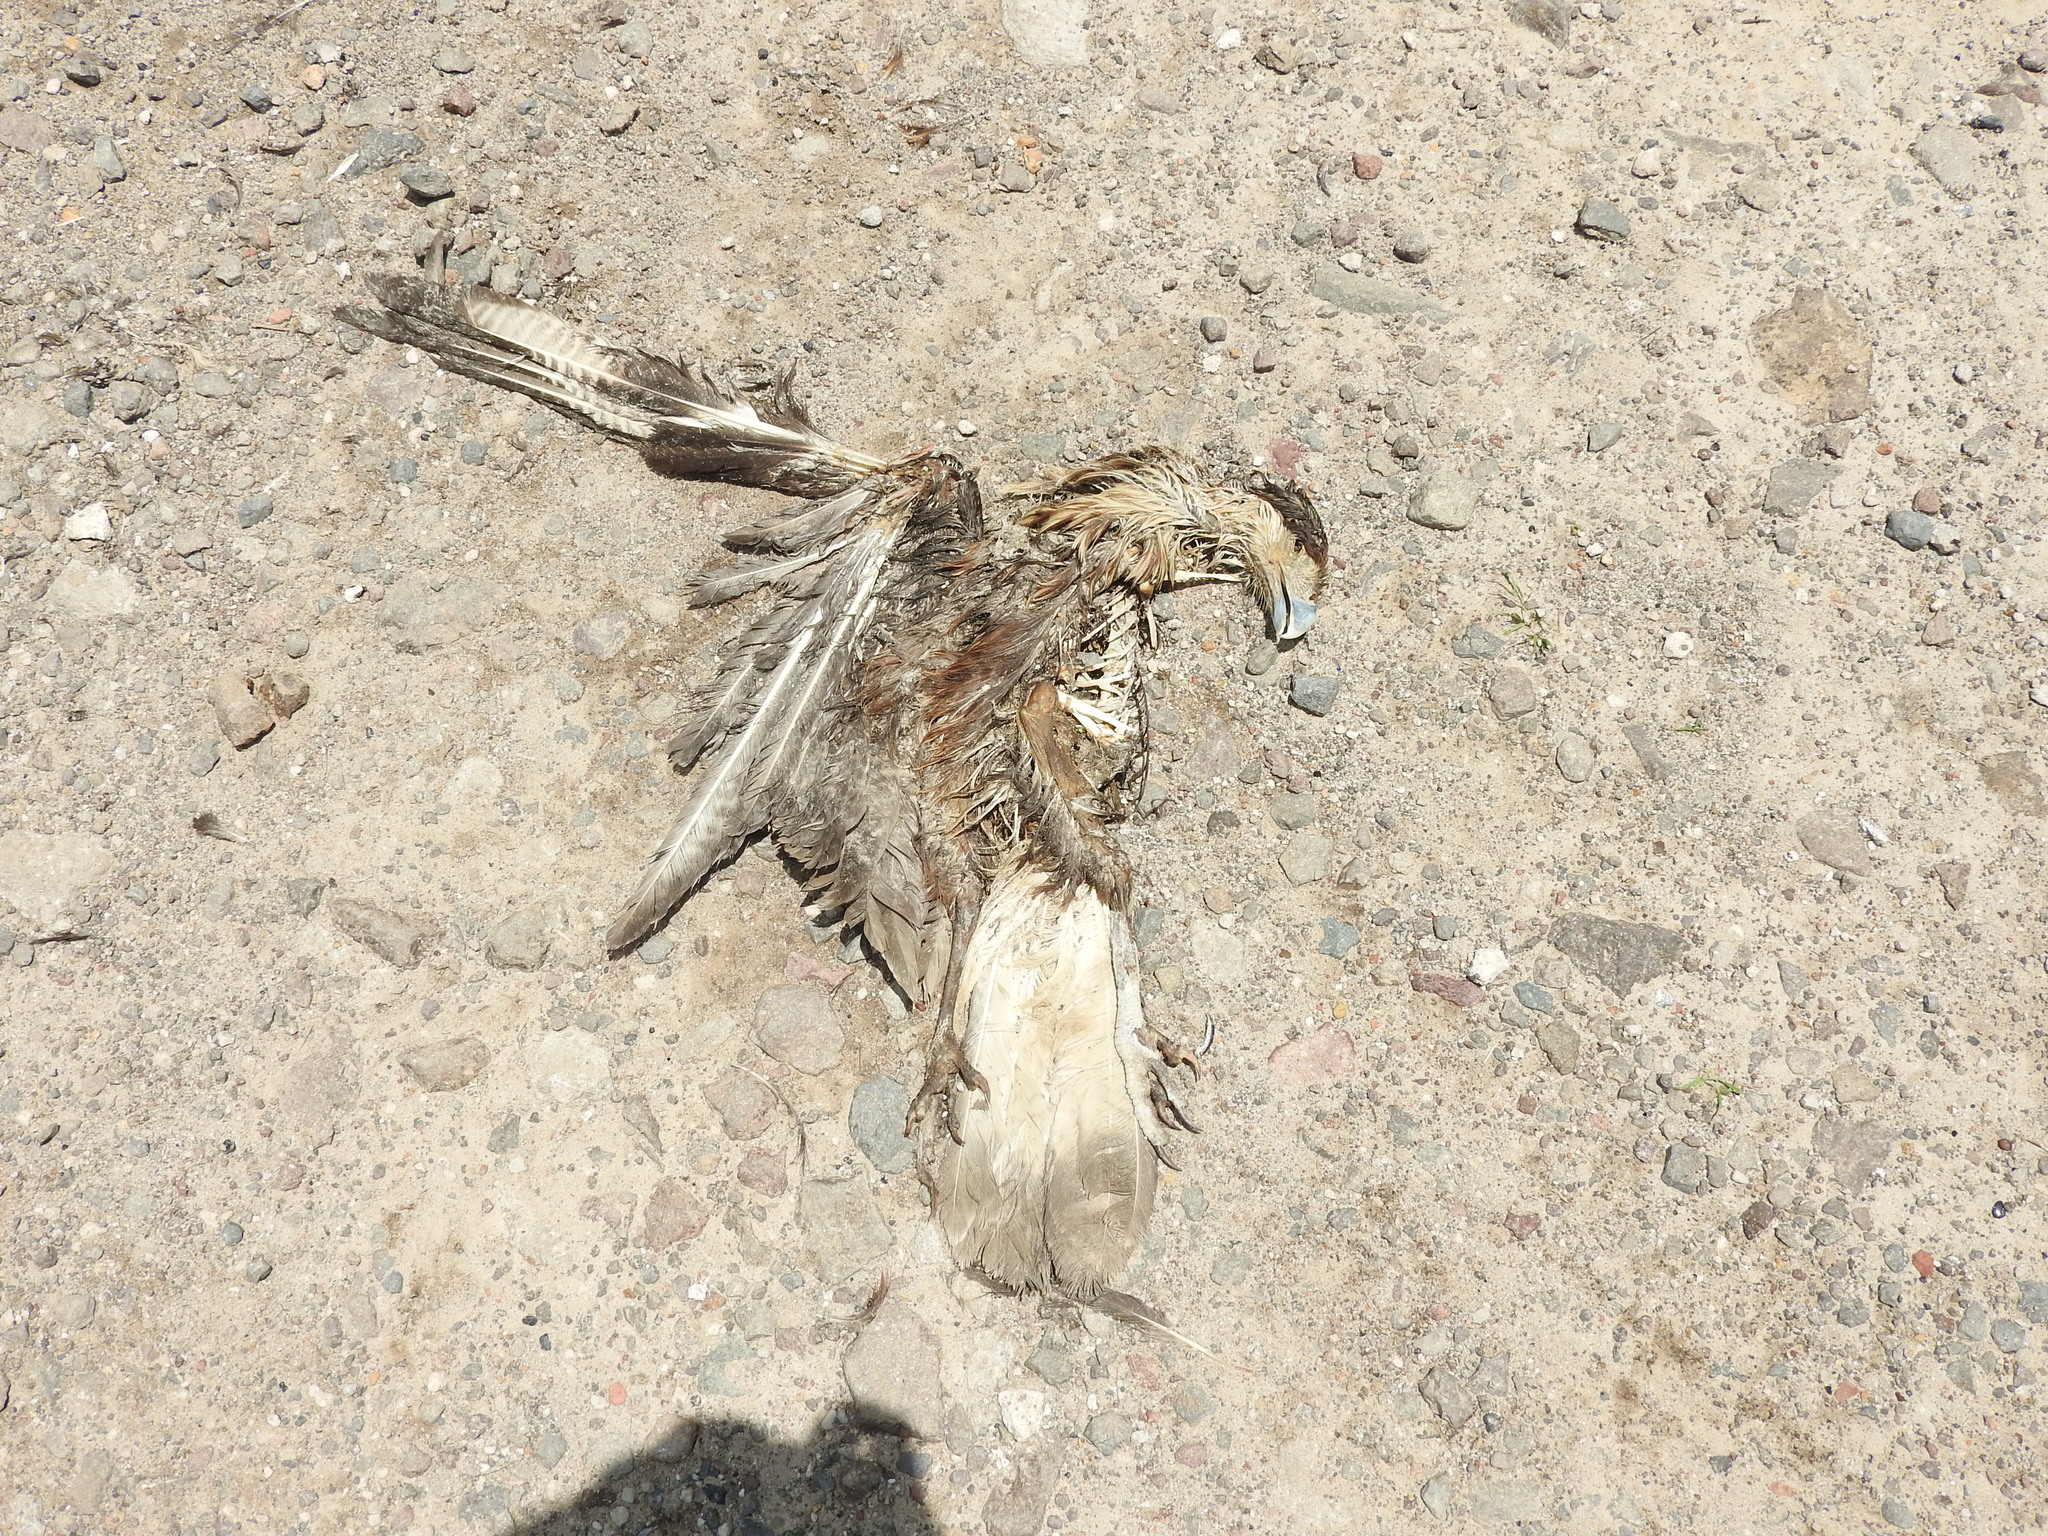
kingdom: Animalia
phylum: Chordata
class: Aves
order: Falconiformes
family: Falconidae
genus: Caracara
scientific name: Caracara plancus
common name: Southern caracara
